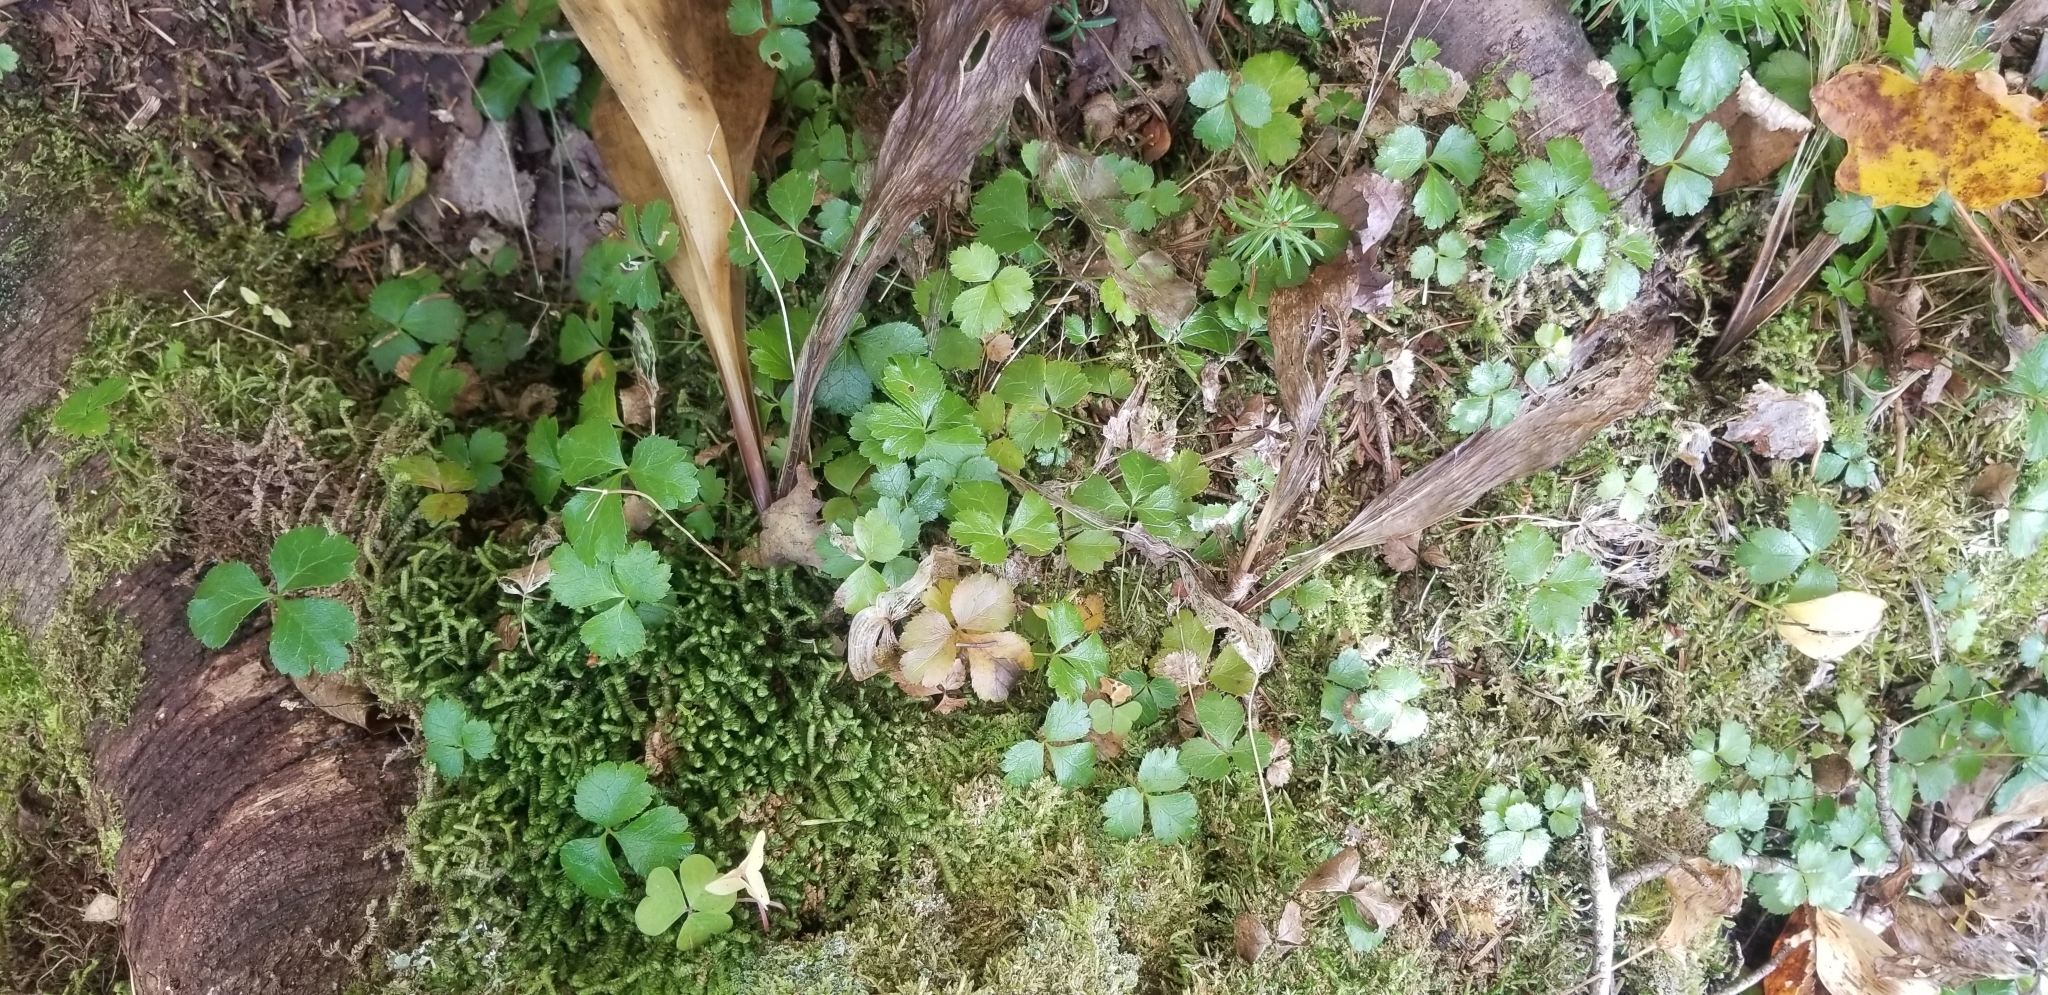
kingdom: Plantae
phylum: Tracheophyta
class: Magnoliopsida
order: Ranunculales
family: Ranunculaceae
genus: Coptis
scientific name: Coptis trifolia
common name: Canker-root
